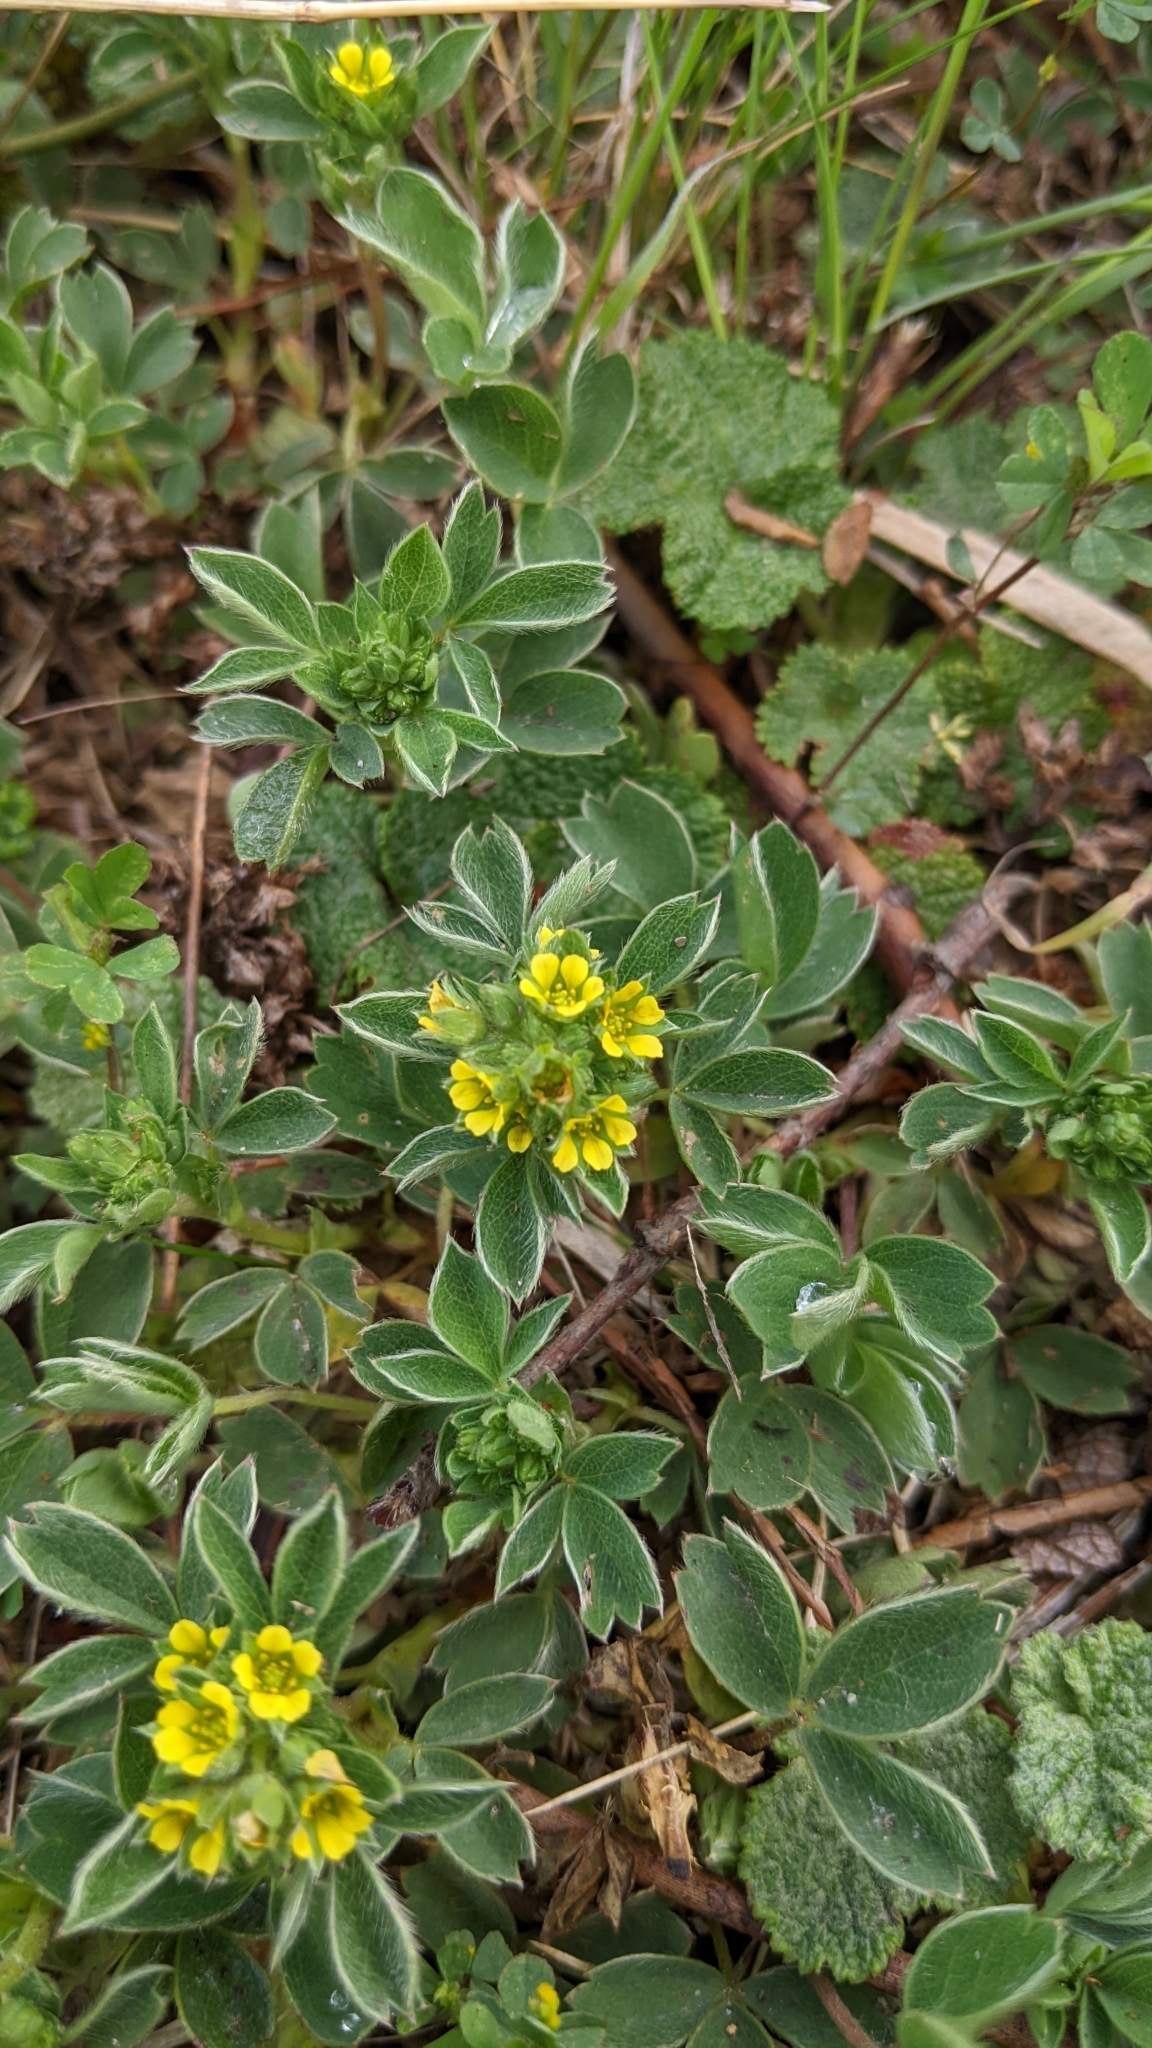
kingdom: Plantae
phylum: Tracheophyta
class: Magnoliopsida
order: Rosales
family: Rosaceae
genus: Sibbaldia
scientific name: Sibbaldia procumbens
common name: Creeping sibbaldia
